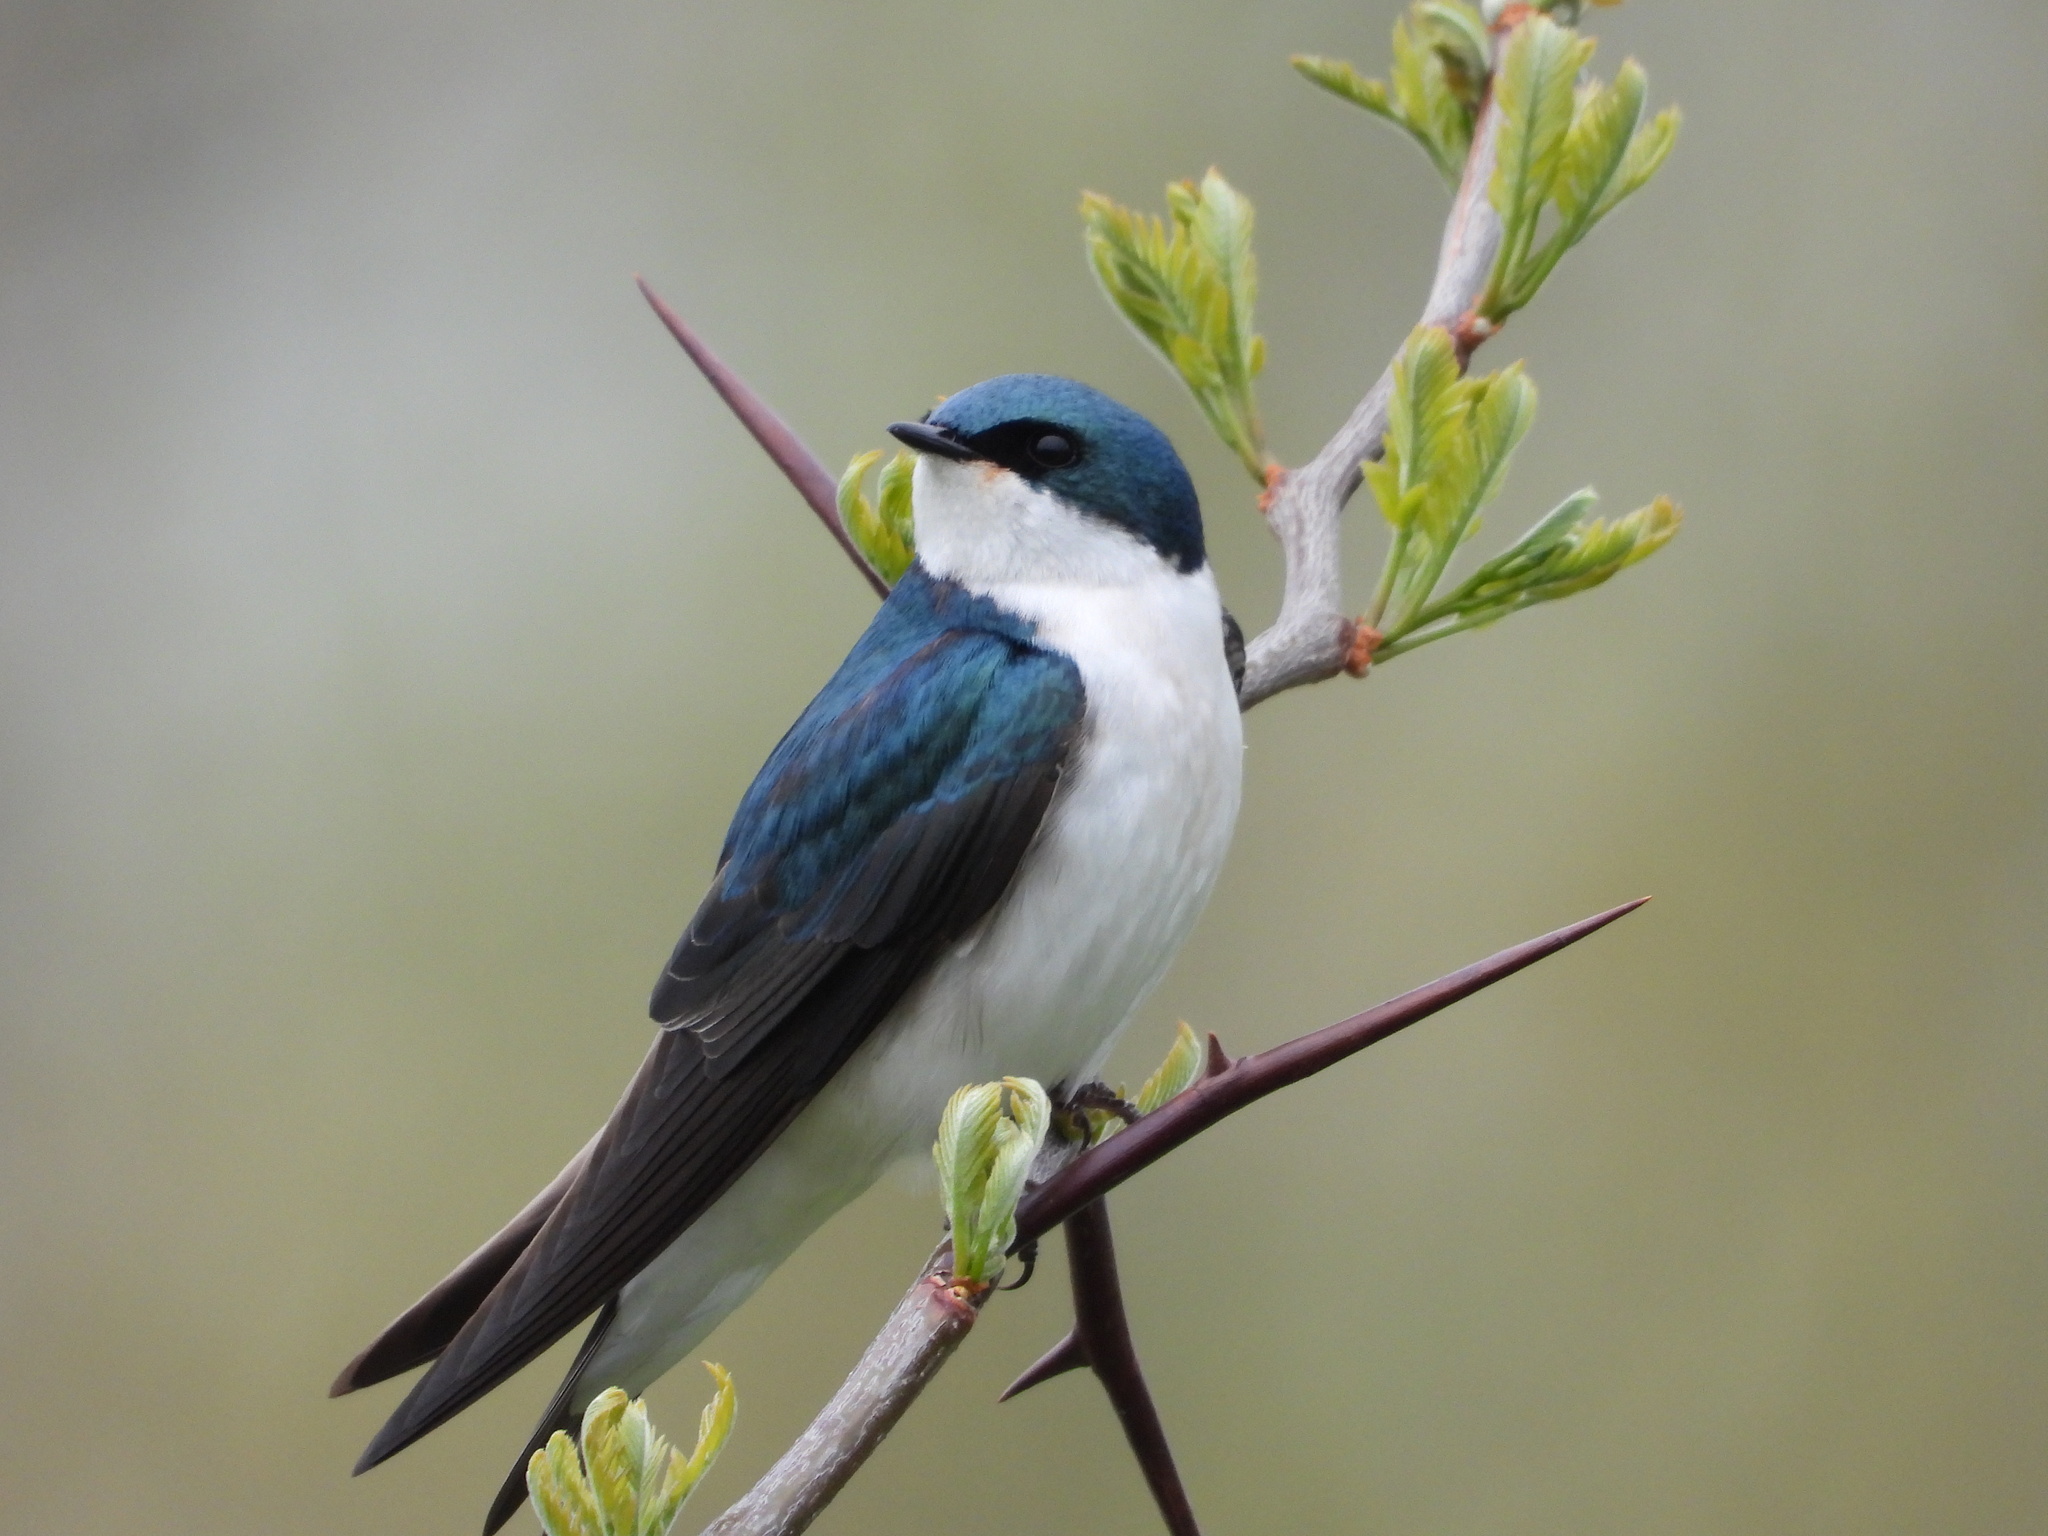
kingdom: Animalia
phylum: Chordata
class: Aves
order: Passeriformes
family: Hirundinidae
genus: Tachycineta
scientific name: Tachycineta bicolor
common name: Tree swallow
